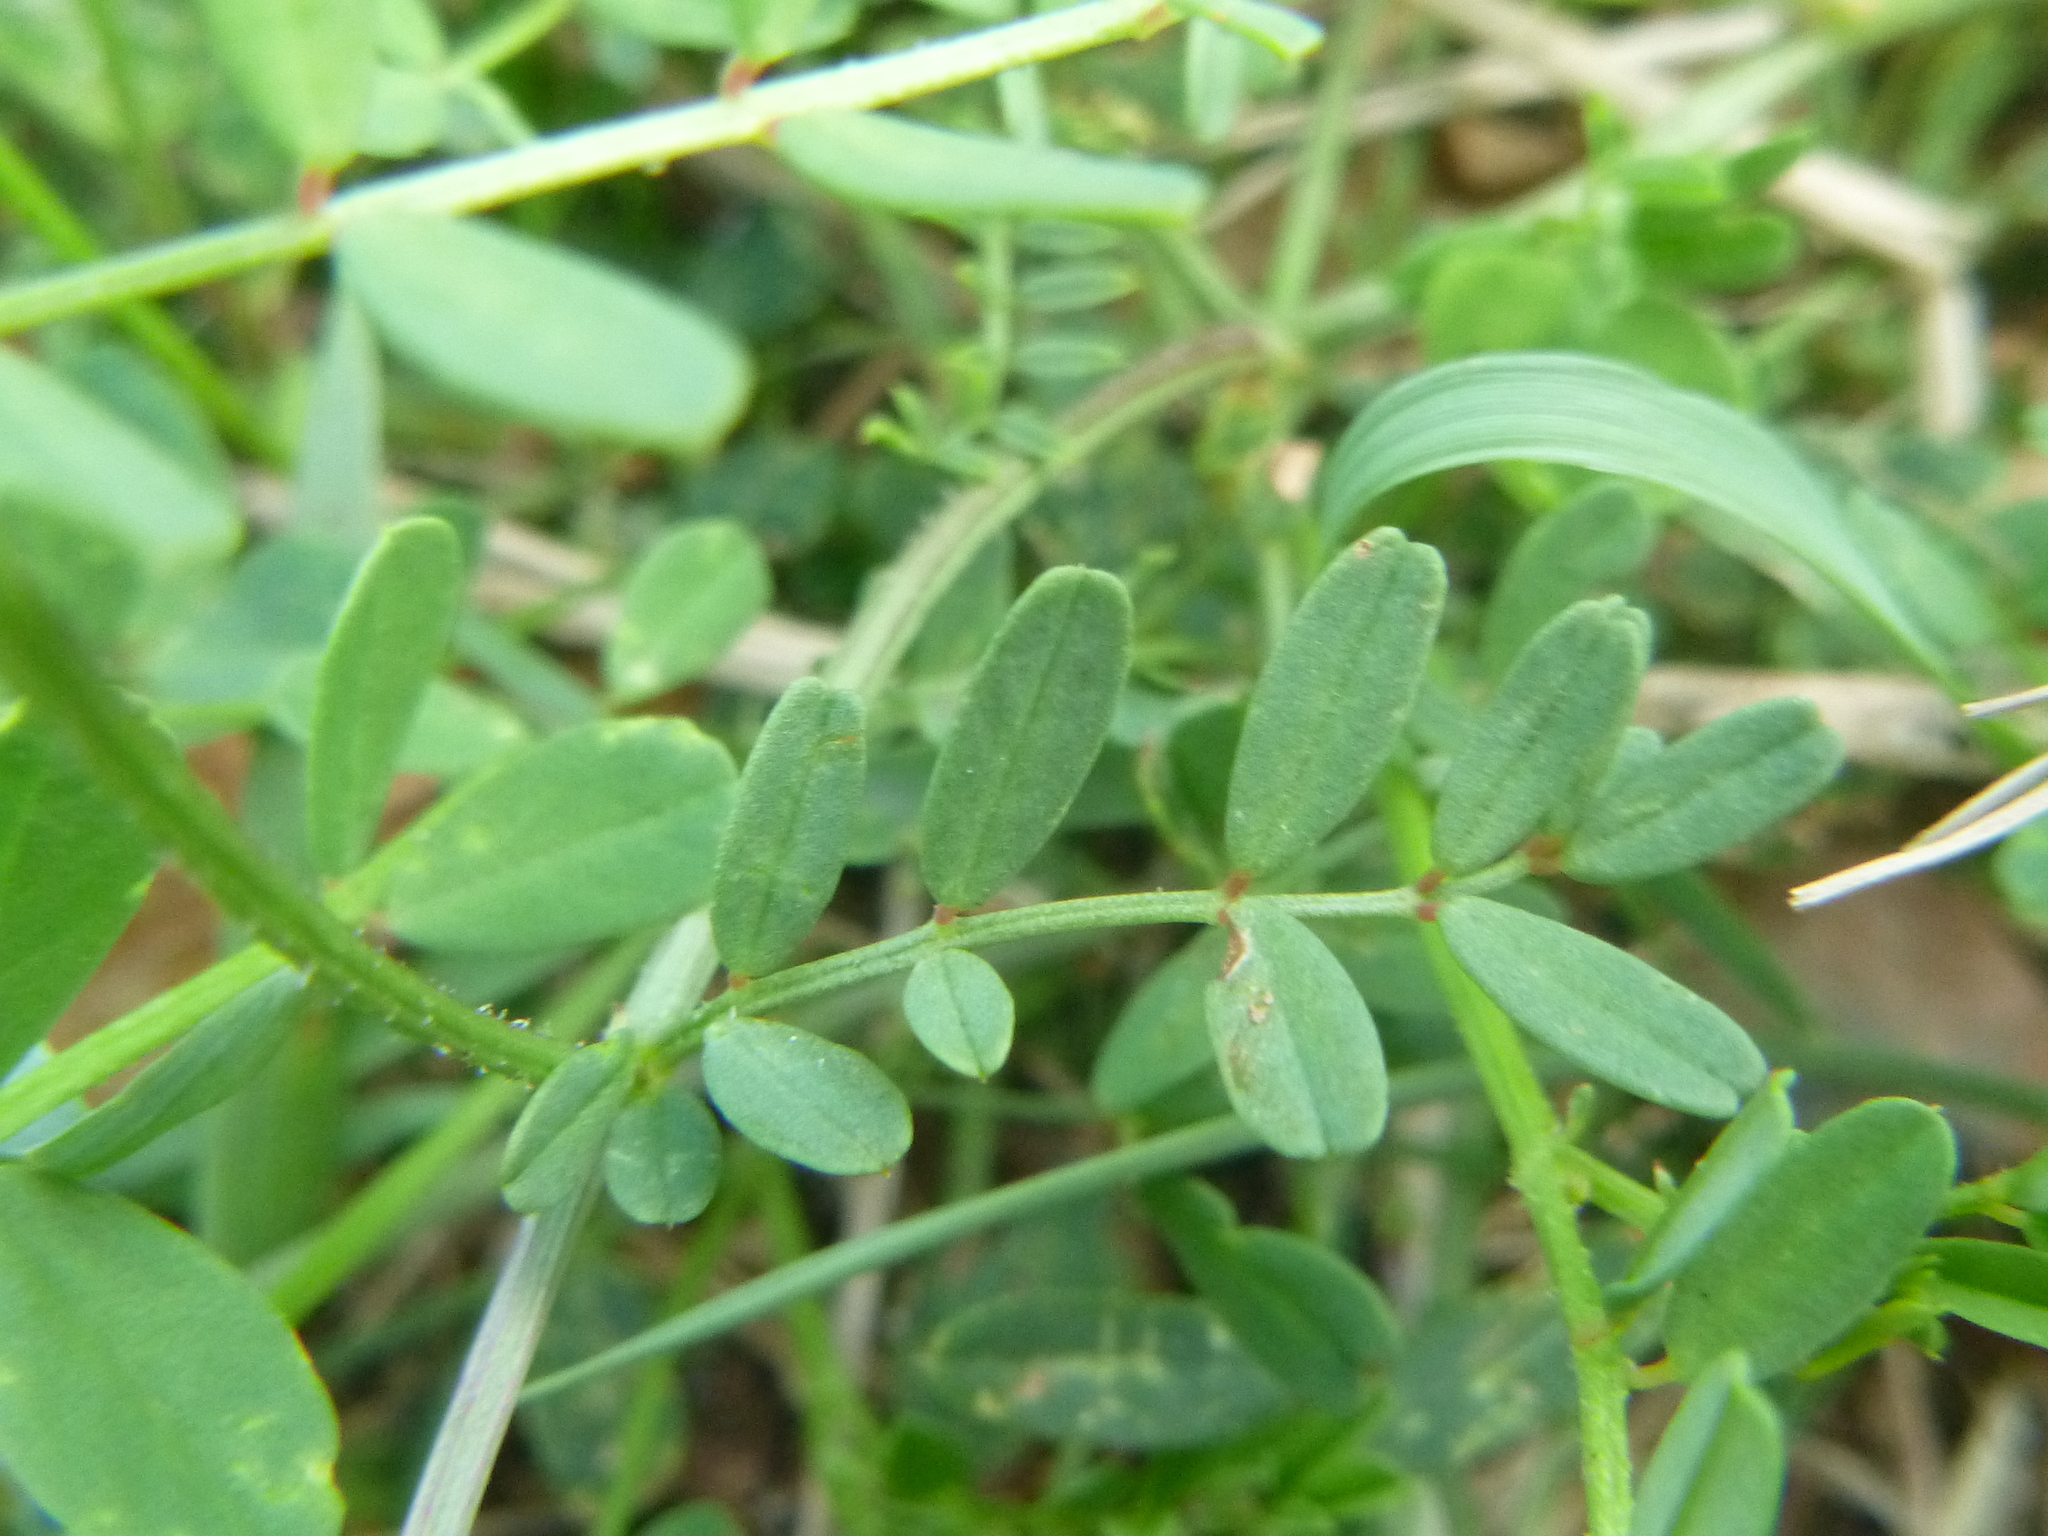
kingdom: Plantae
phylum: Tracheophyta
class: Magnoliopsida
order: Fabales
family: Fabaceae
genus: Coronilla
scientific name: Coronilla varia
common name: Crownvetch
